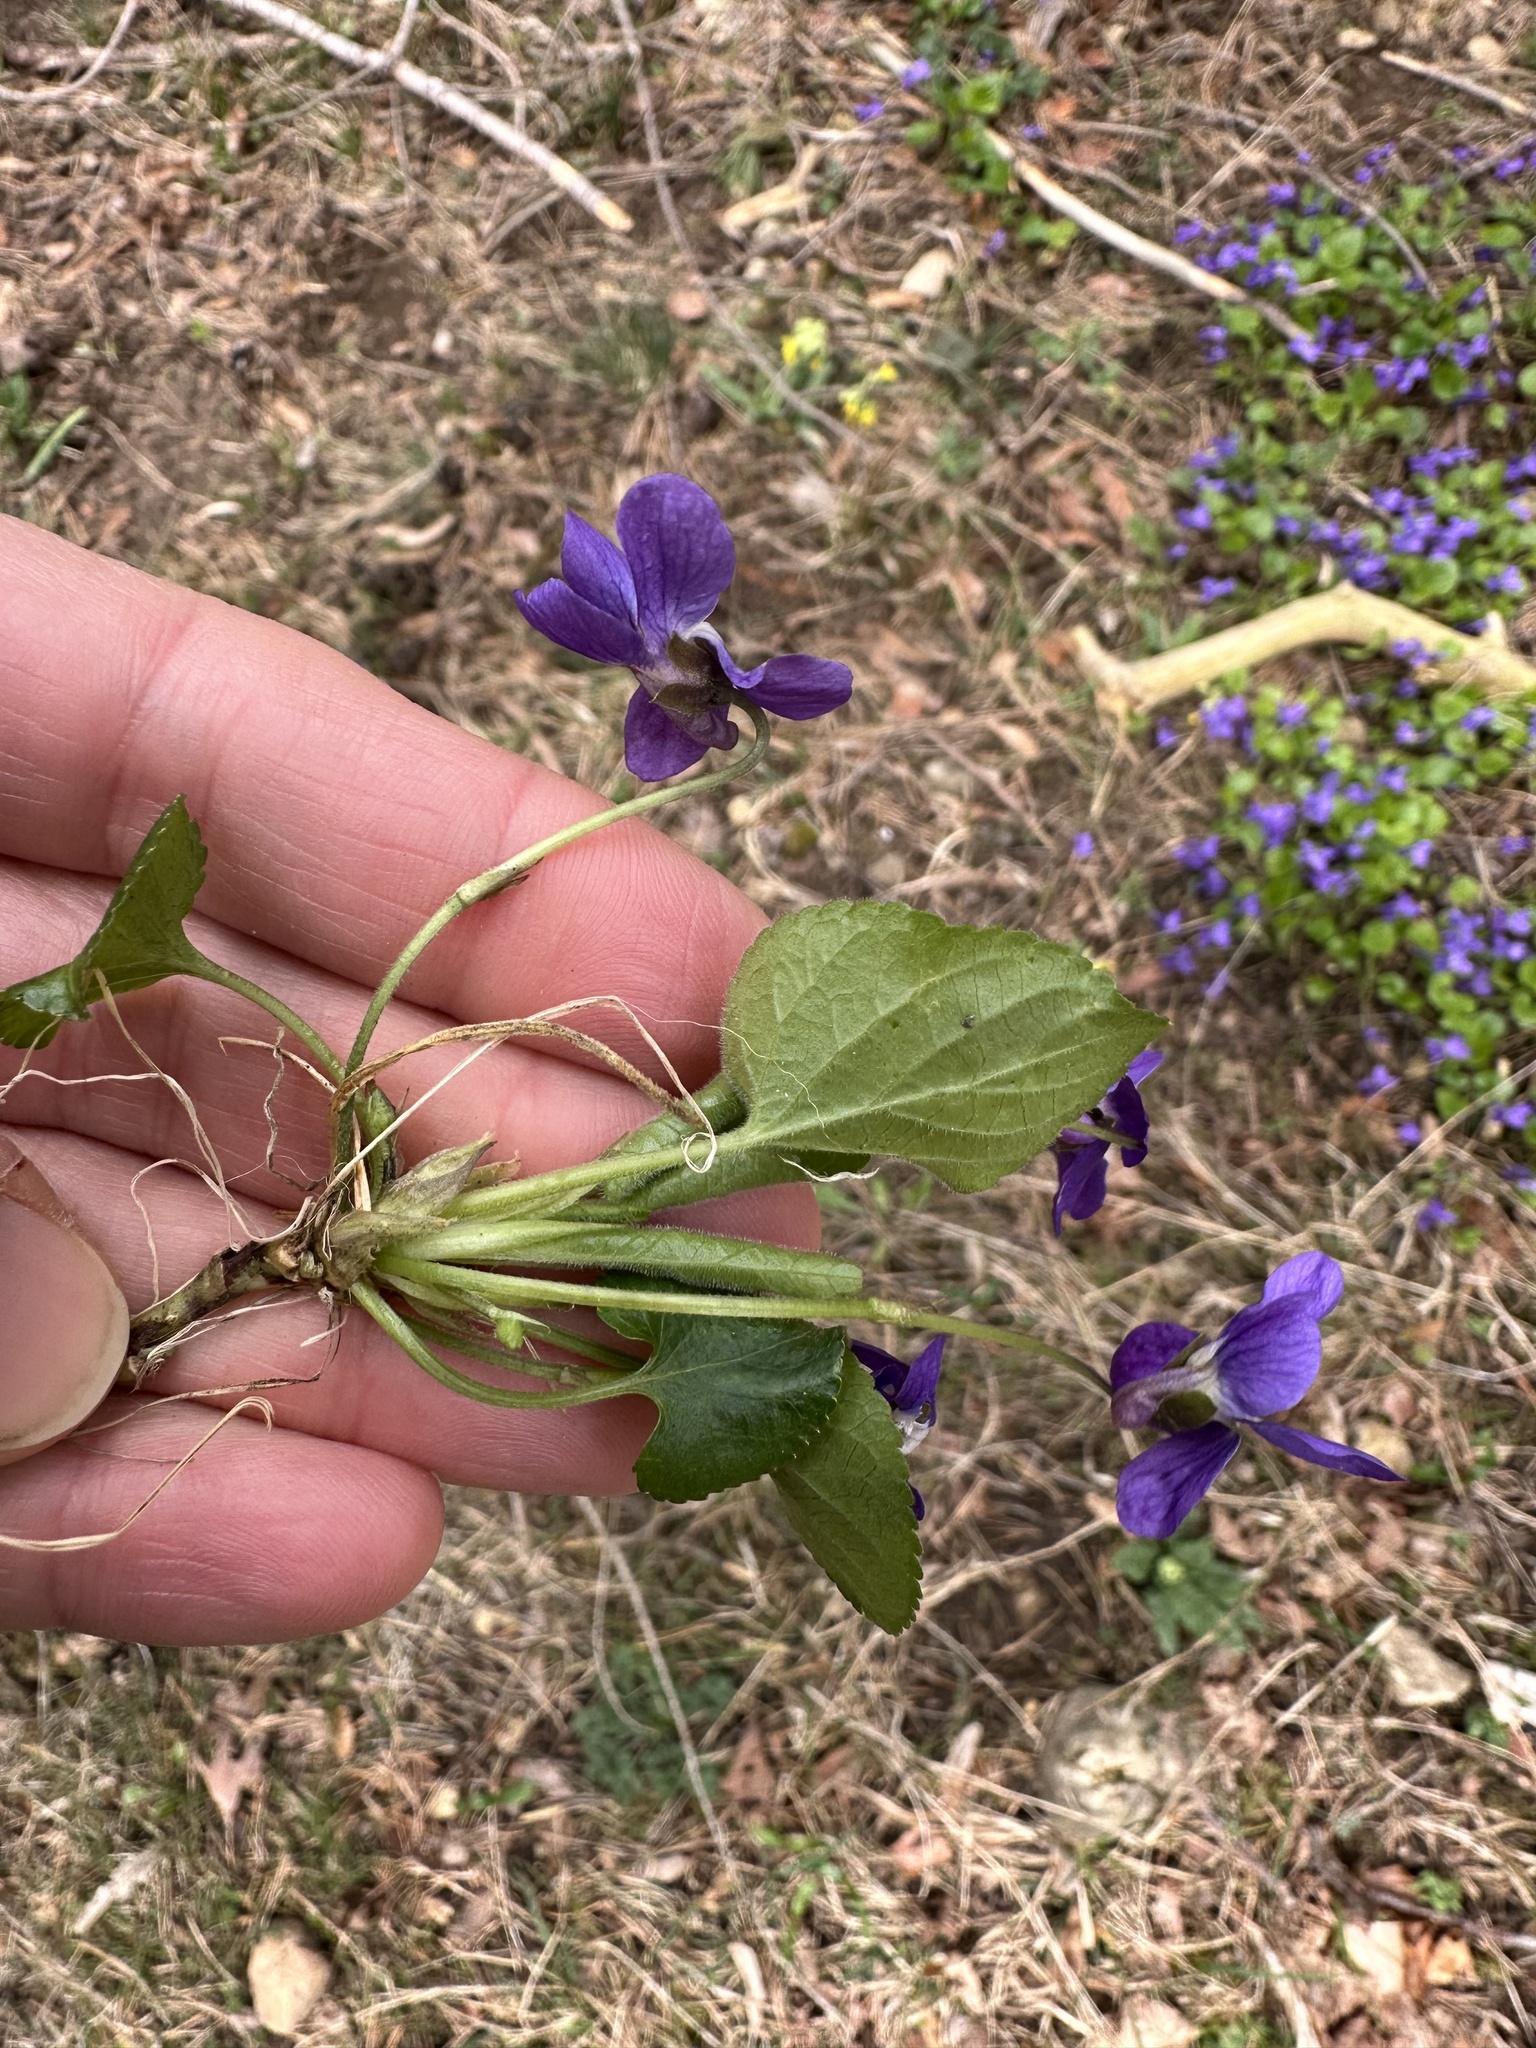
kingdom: Plantae
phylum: Tracheophyta
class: Magnoliopsida
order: Malpighiales
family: Violaceae
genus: Viola
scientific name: Viola odorata
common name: Sweet violet
